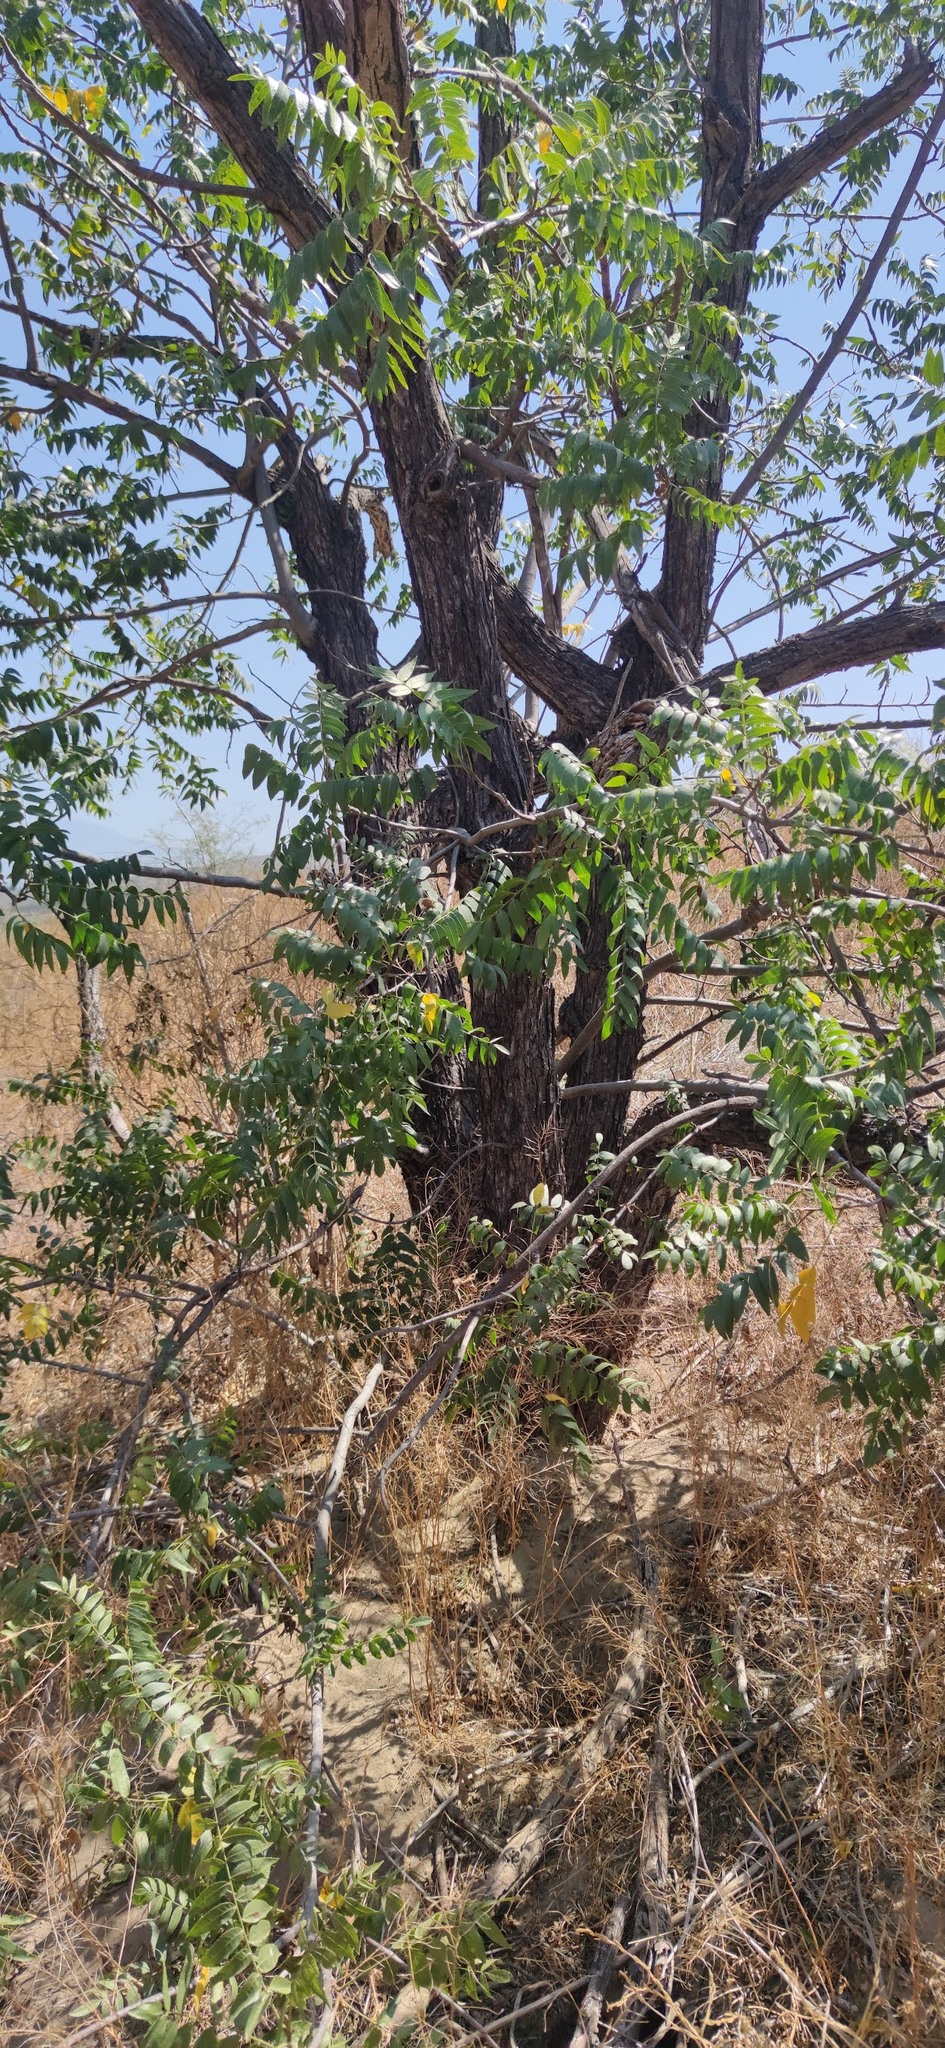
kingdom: Plantae
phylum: Tracheophyta
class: Magnoliopsida
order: Fagales
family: Juglandaceae
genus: Juglans
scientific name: Juglans californica
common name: Southern california black walnut
